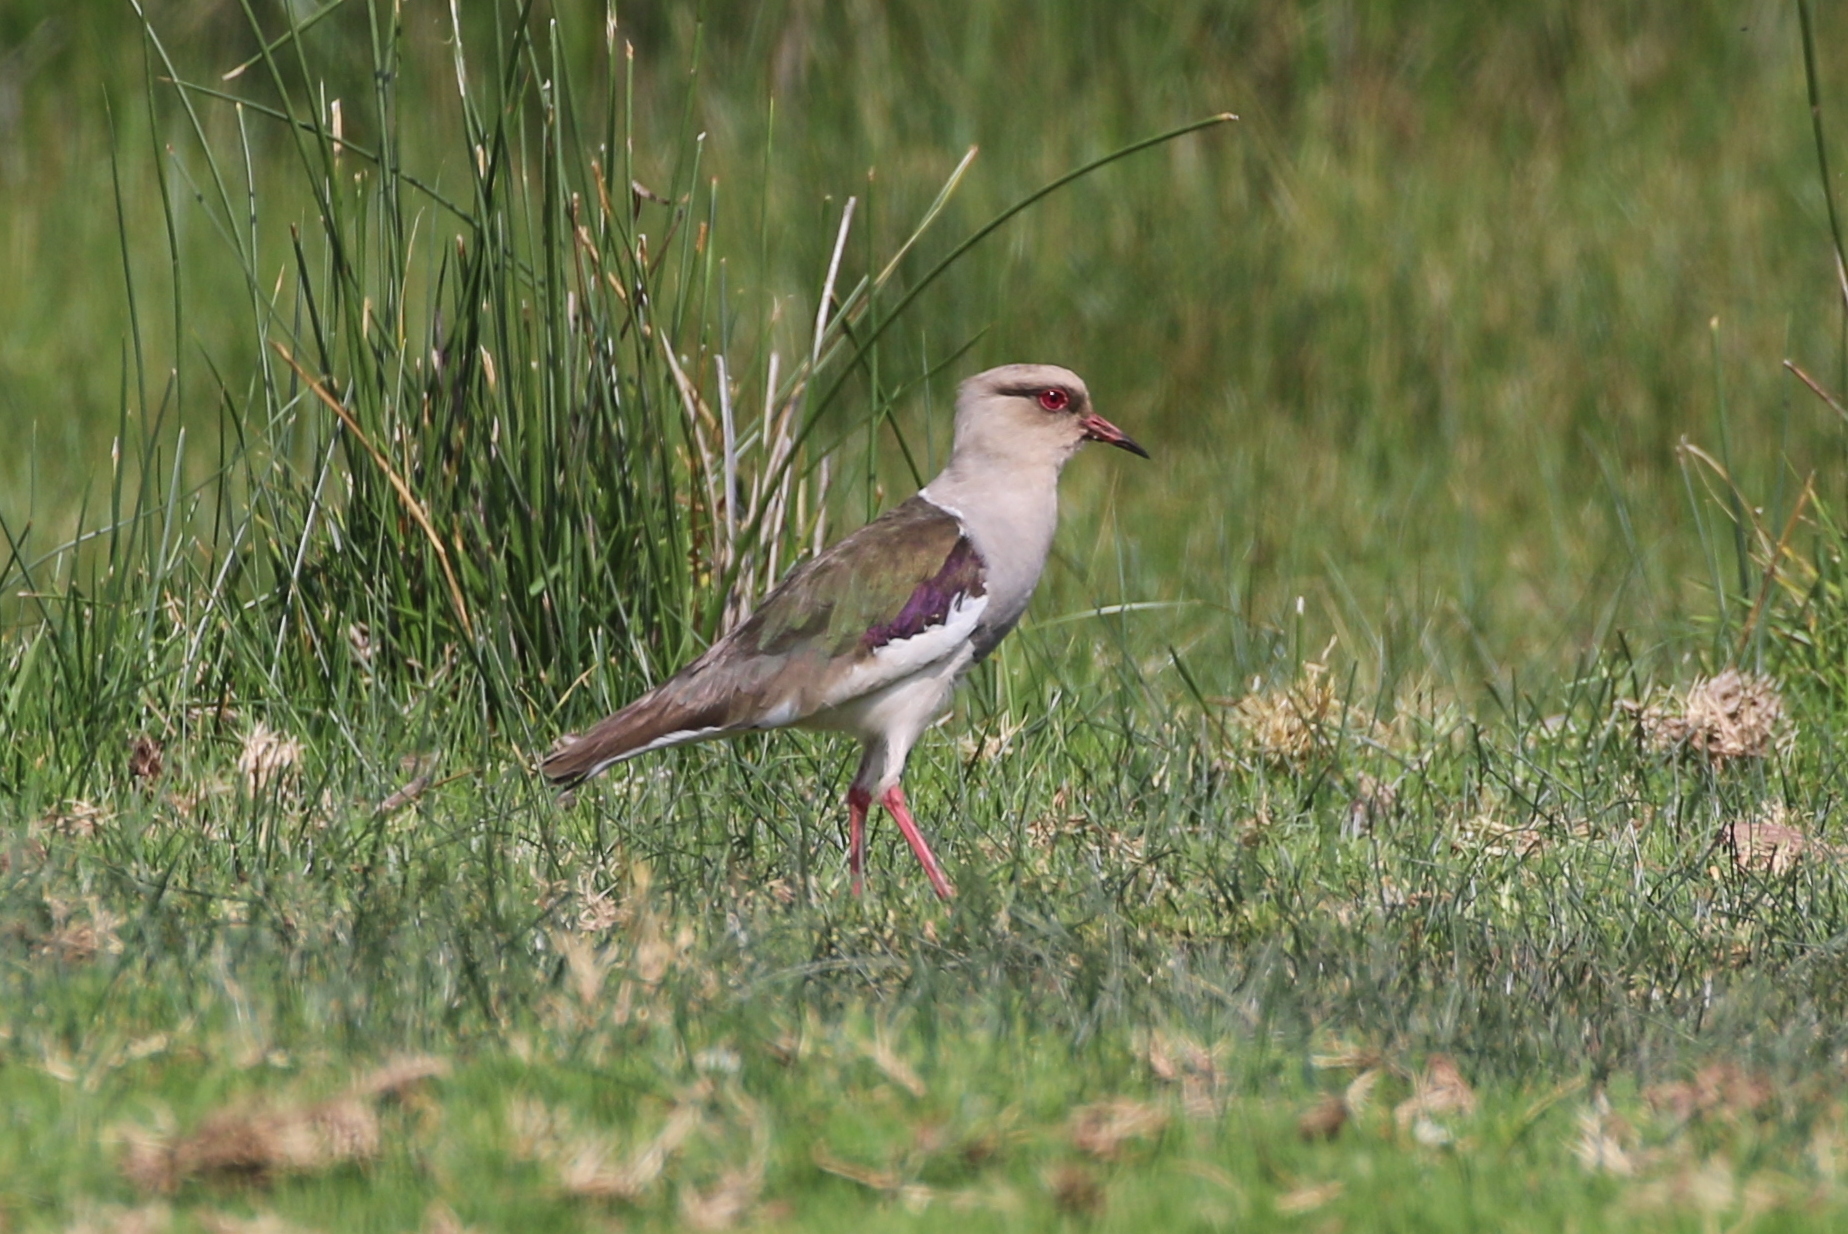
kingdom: Animalia
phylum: Chordata
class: Aves
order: Charadriiformes
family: Charadriidae
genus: Vanellus
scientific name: Vanellus resplendens
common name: Andean lapwing
